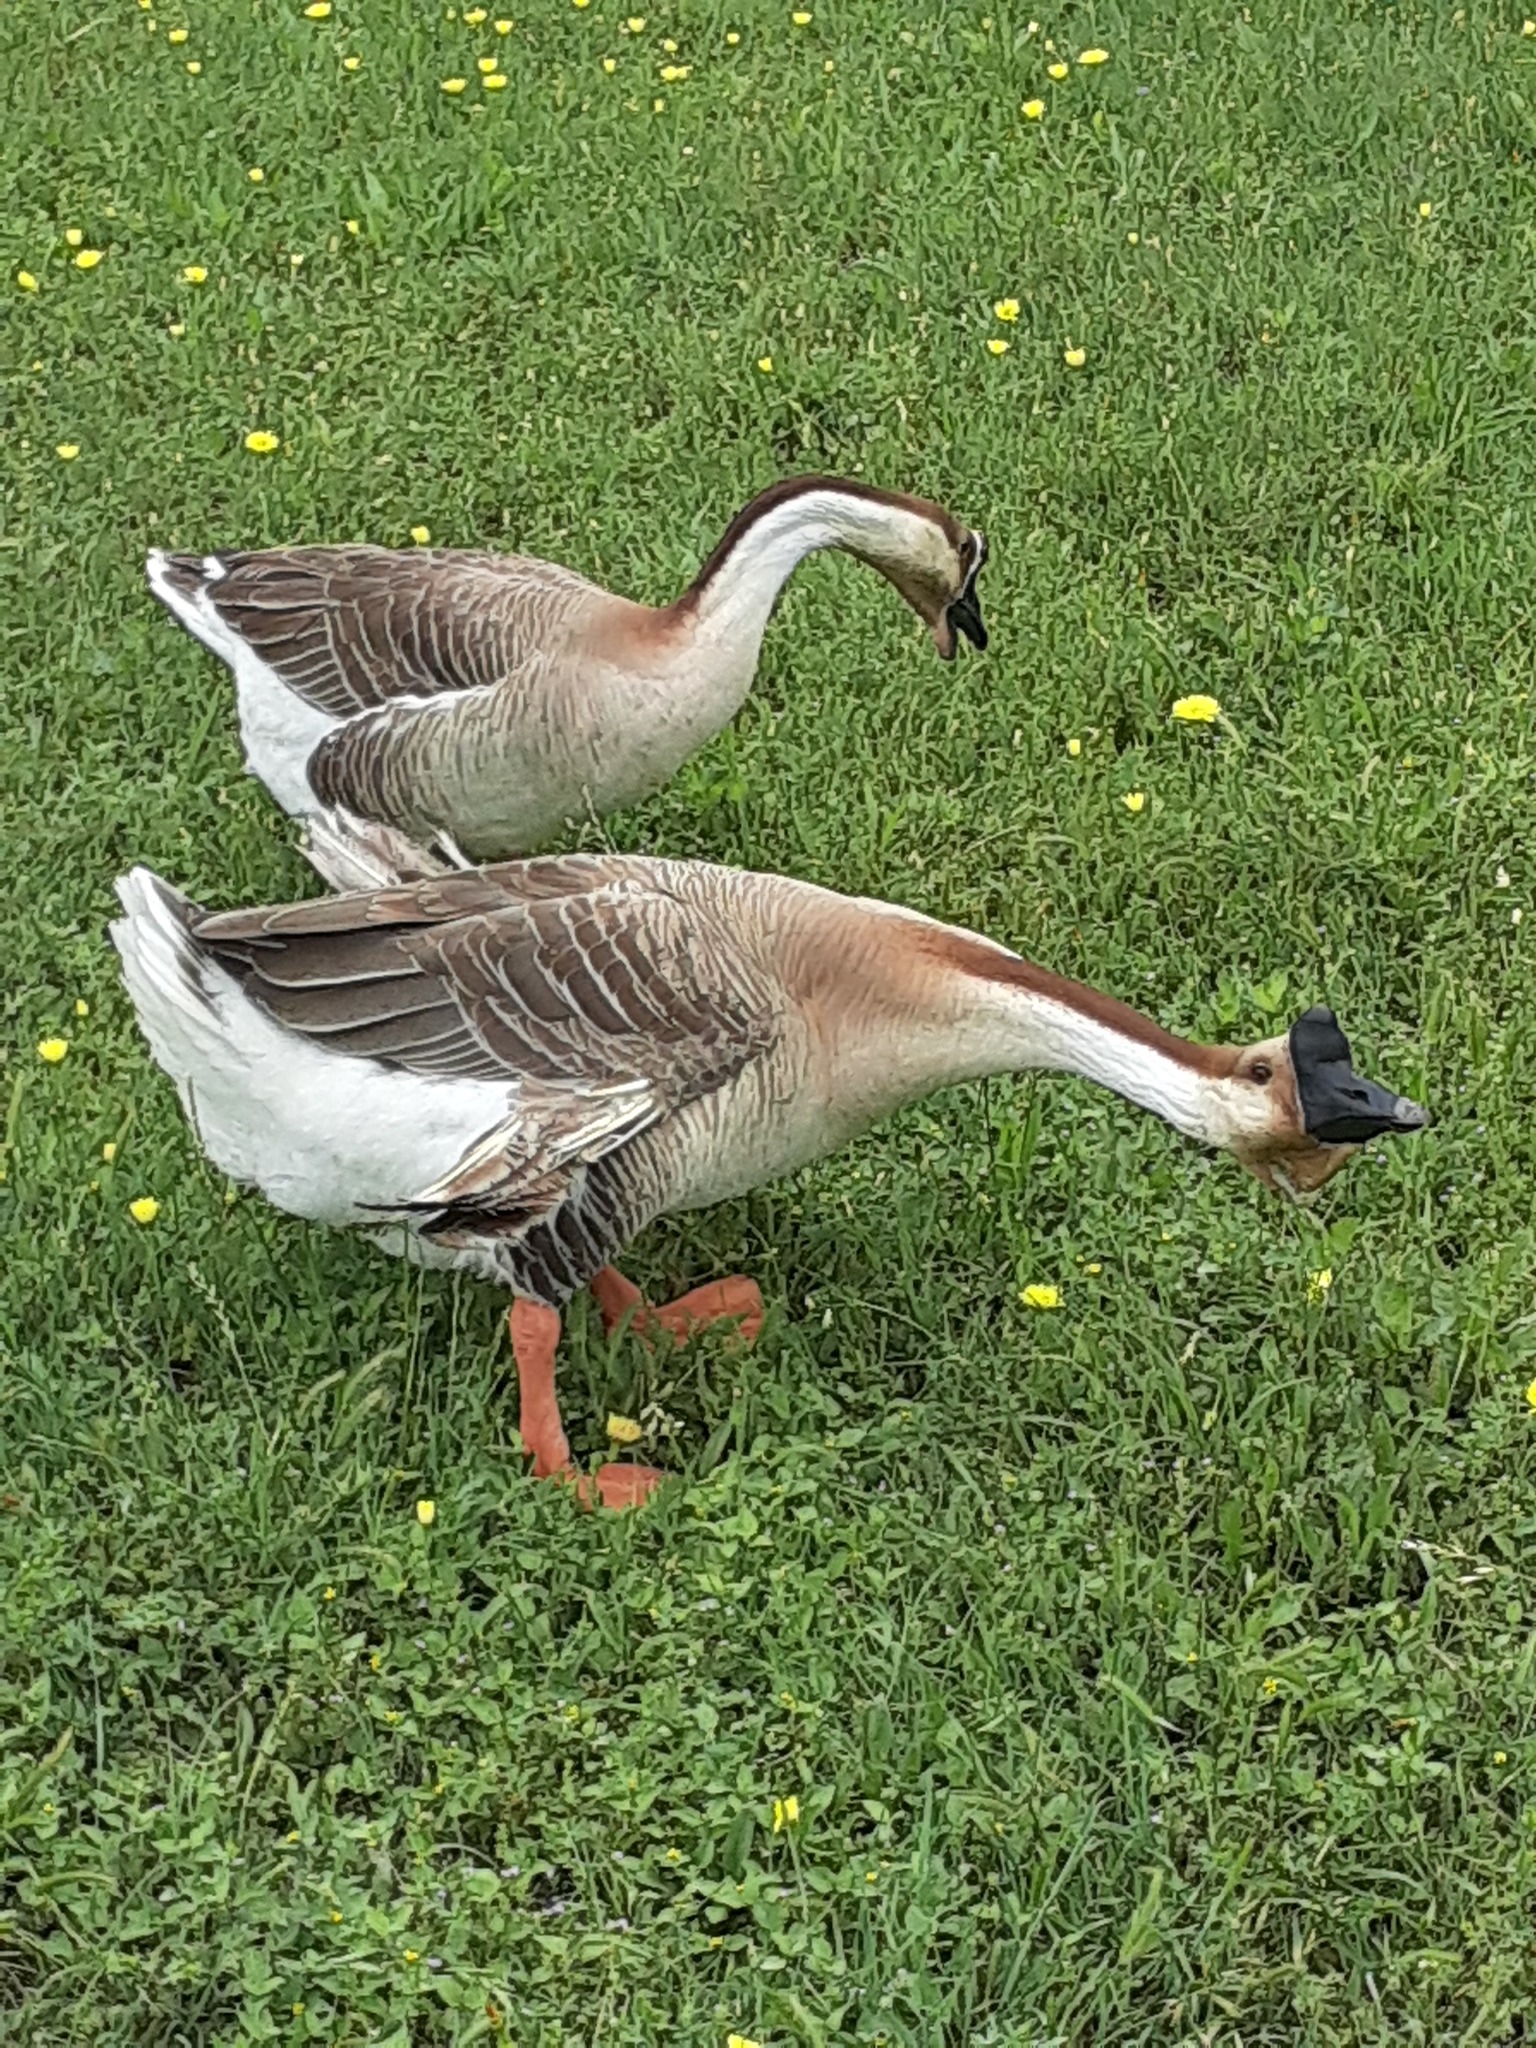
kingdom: Animalia
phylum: Chordata
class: Aves
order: Anseriformes
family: Anatidae
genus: Anser
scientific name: Anser cygnoides
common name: Swan goose
